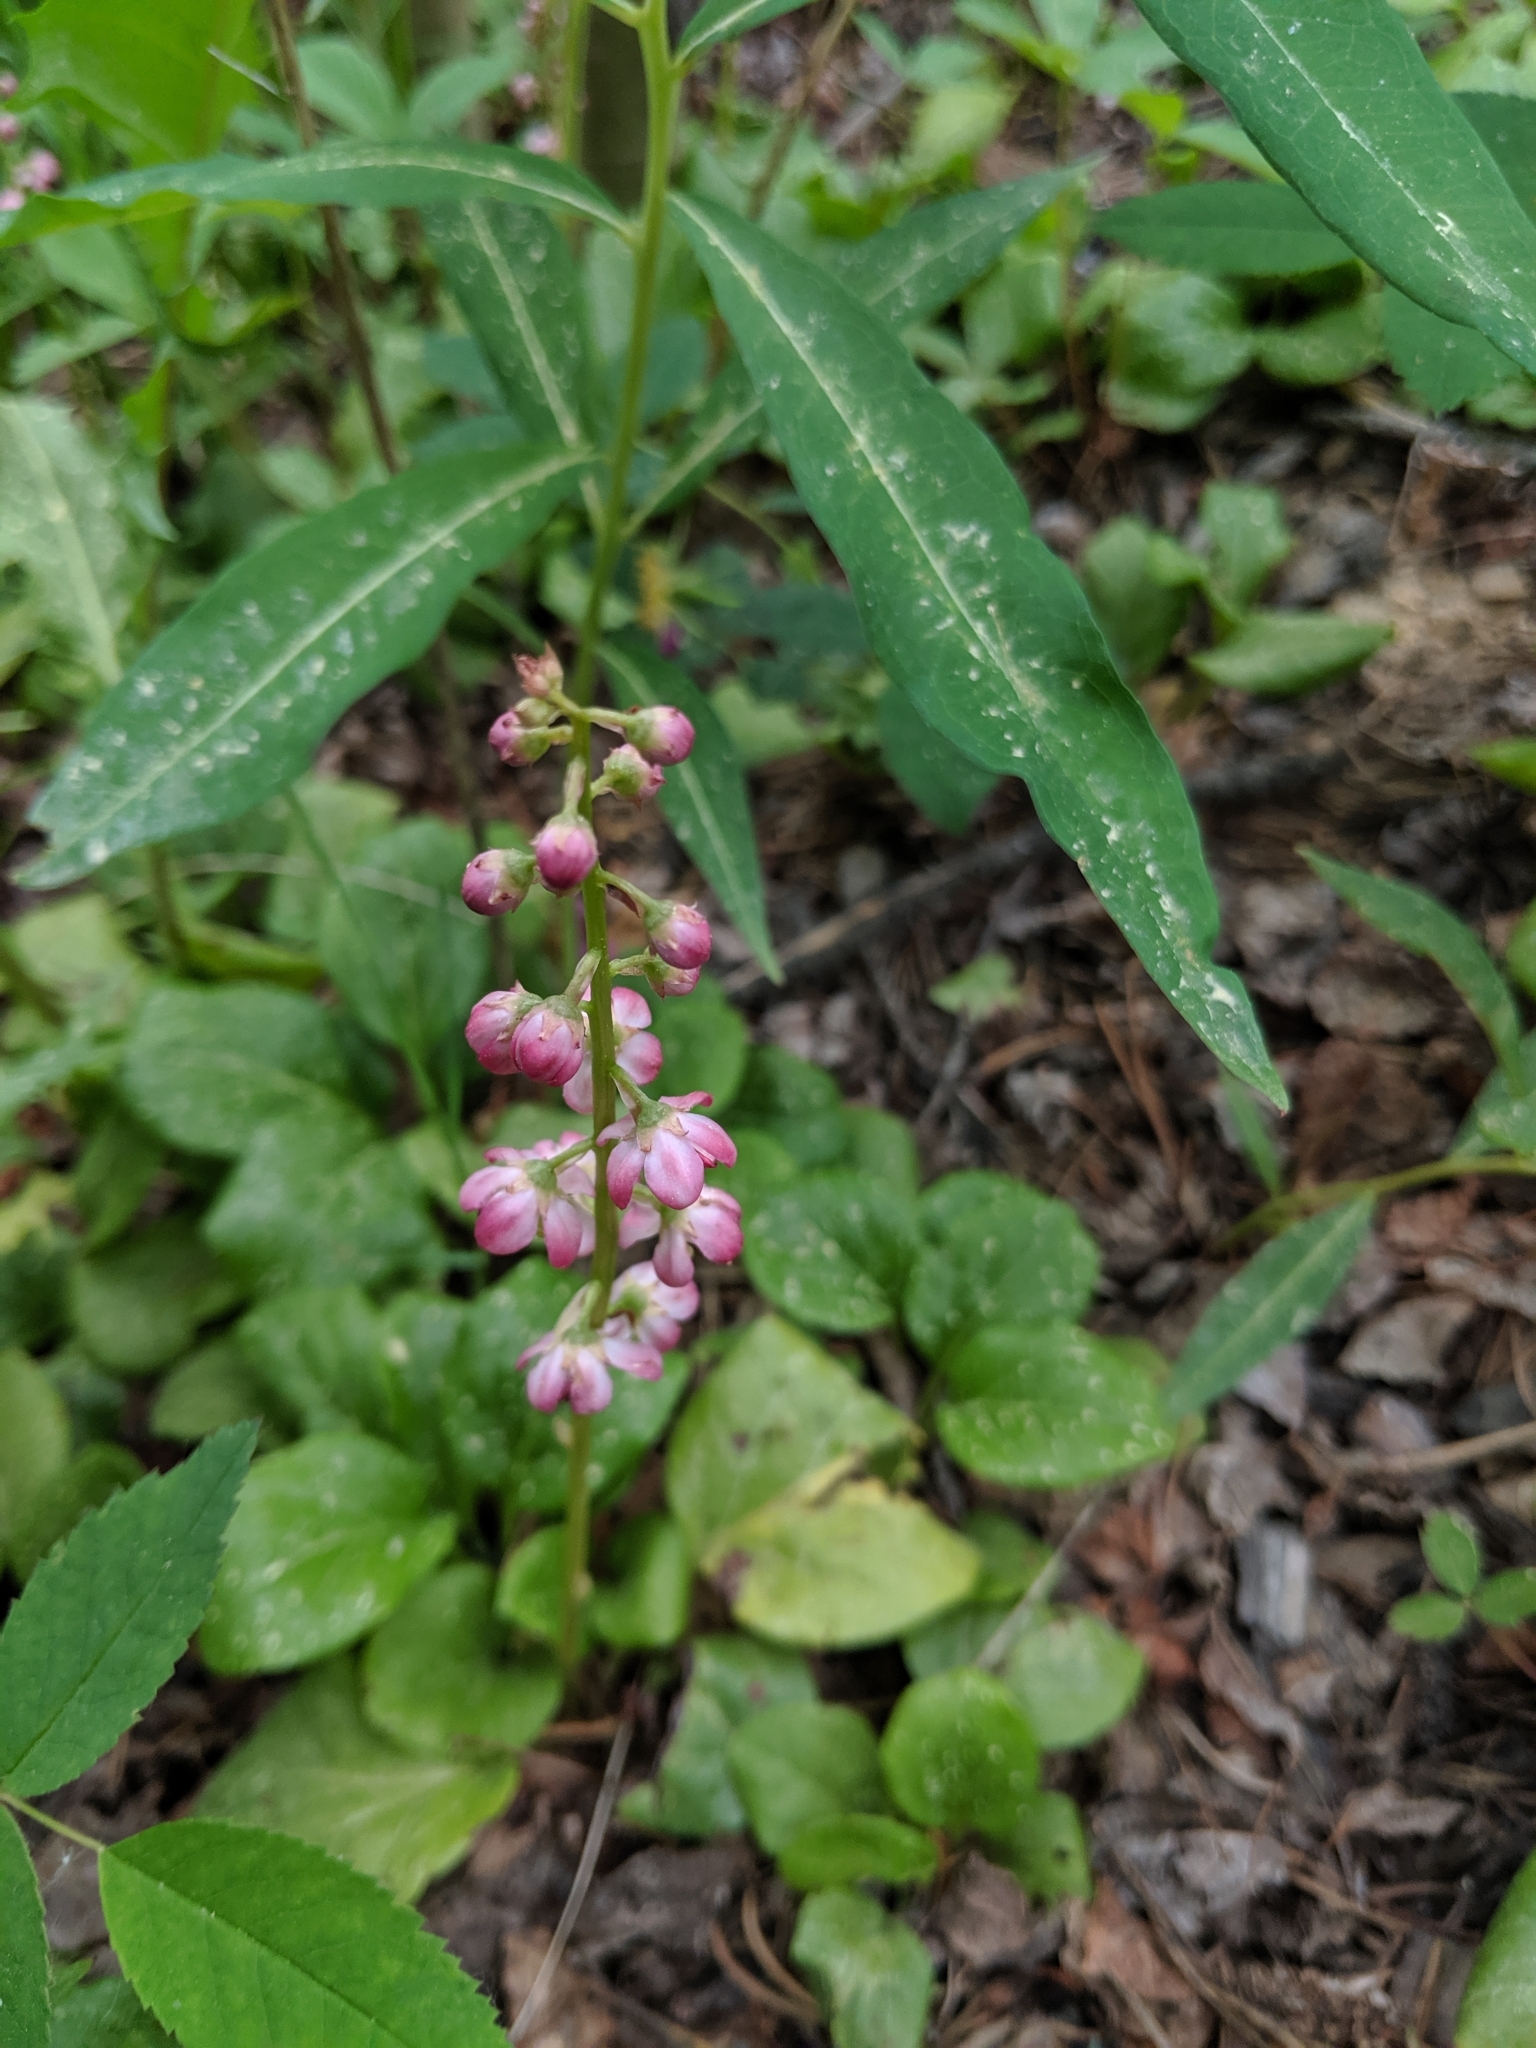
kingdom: Plantae
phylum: Tracheophyta
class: Magnoliopsida
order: Ericales
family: Ericaceae
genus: Pyrola
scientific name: Pyrola asarifolia
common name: Bog wintergreen
